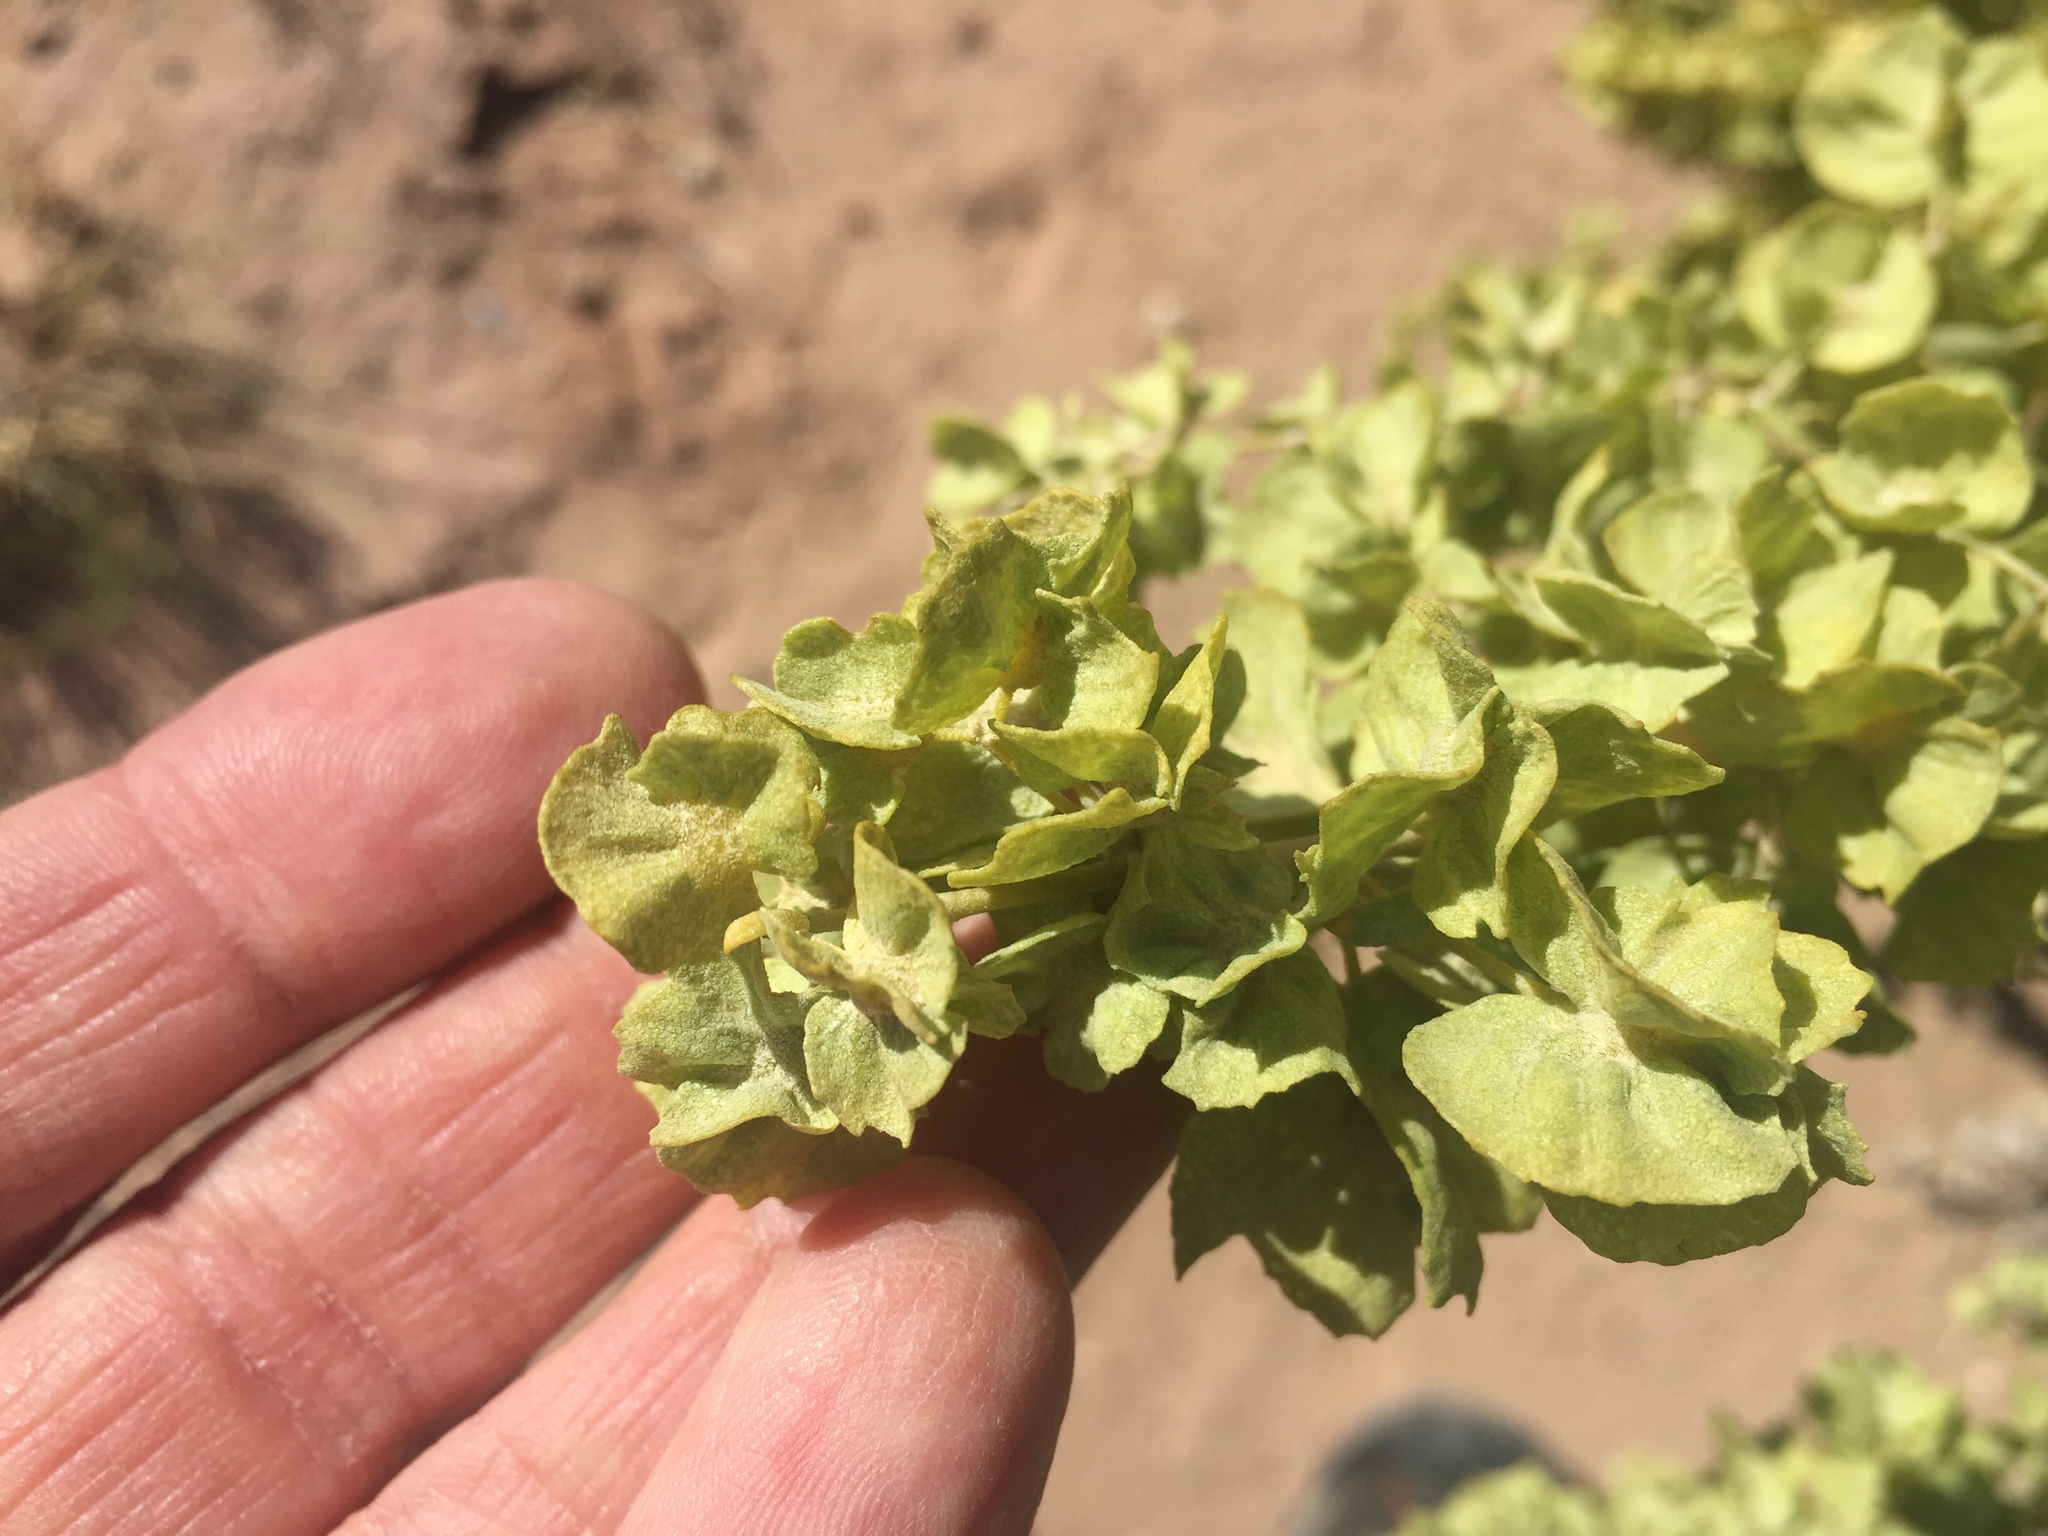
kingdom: Plantae
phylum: Tracheophyta
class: Magnoliopsida
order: Caryophyllales
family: Amaranthaceae
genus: Atriplex
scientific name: Atriplex canescens
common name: Four-wing saltbush
